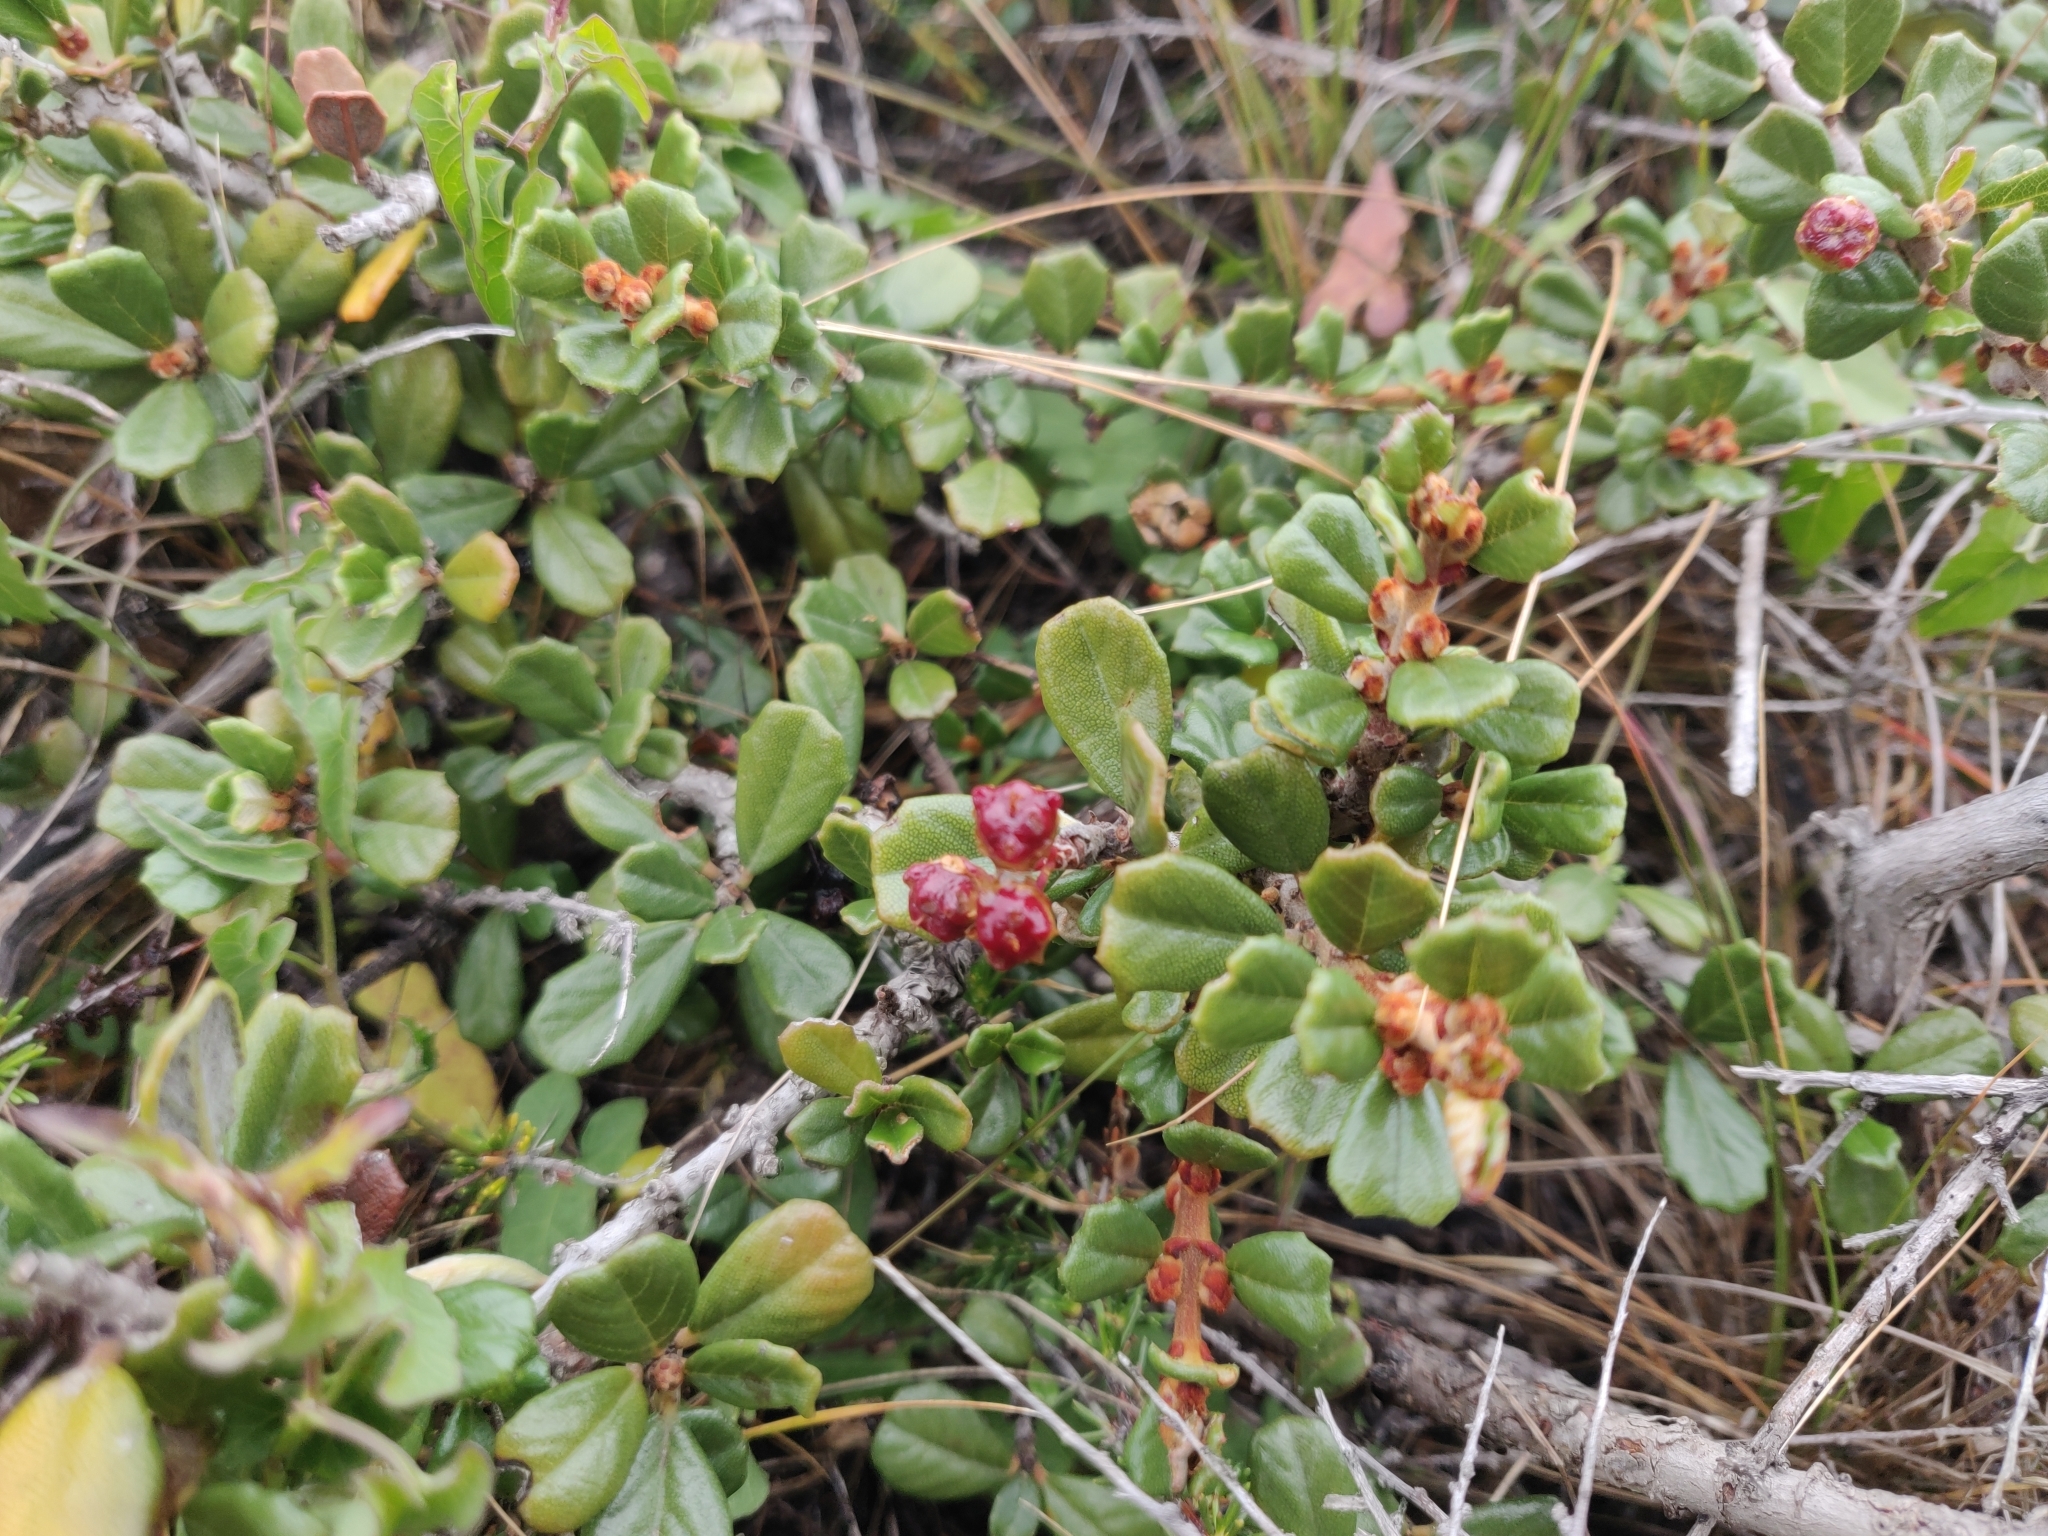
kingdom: Plantae
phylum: Tracheophyta
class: Magnoliopsida
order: Rosales
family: Rhamnaceae
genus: Ceanothus
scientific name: Ceanothus maritimus
